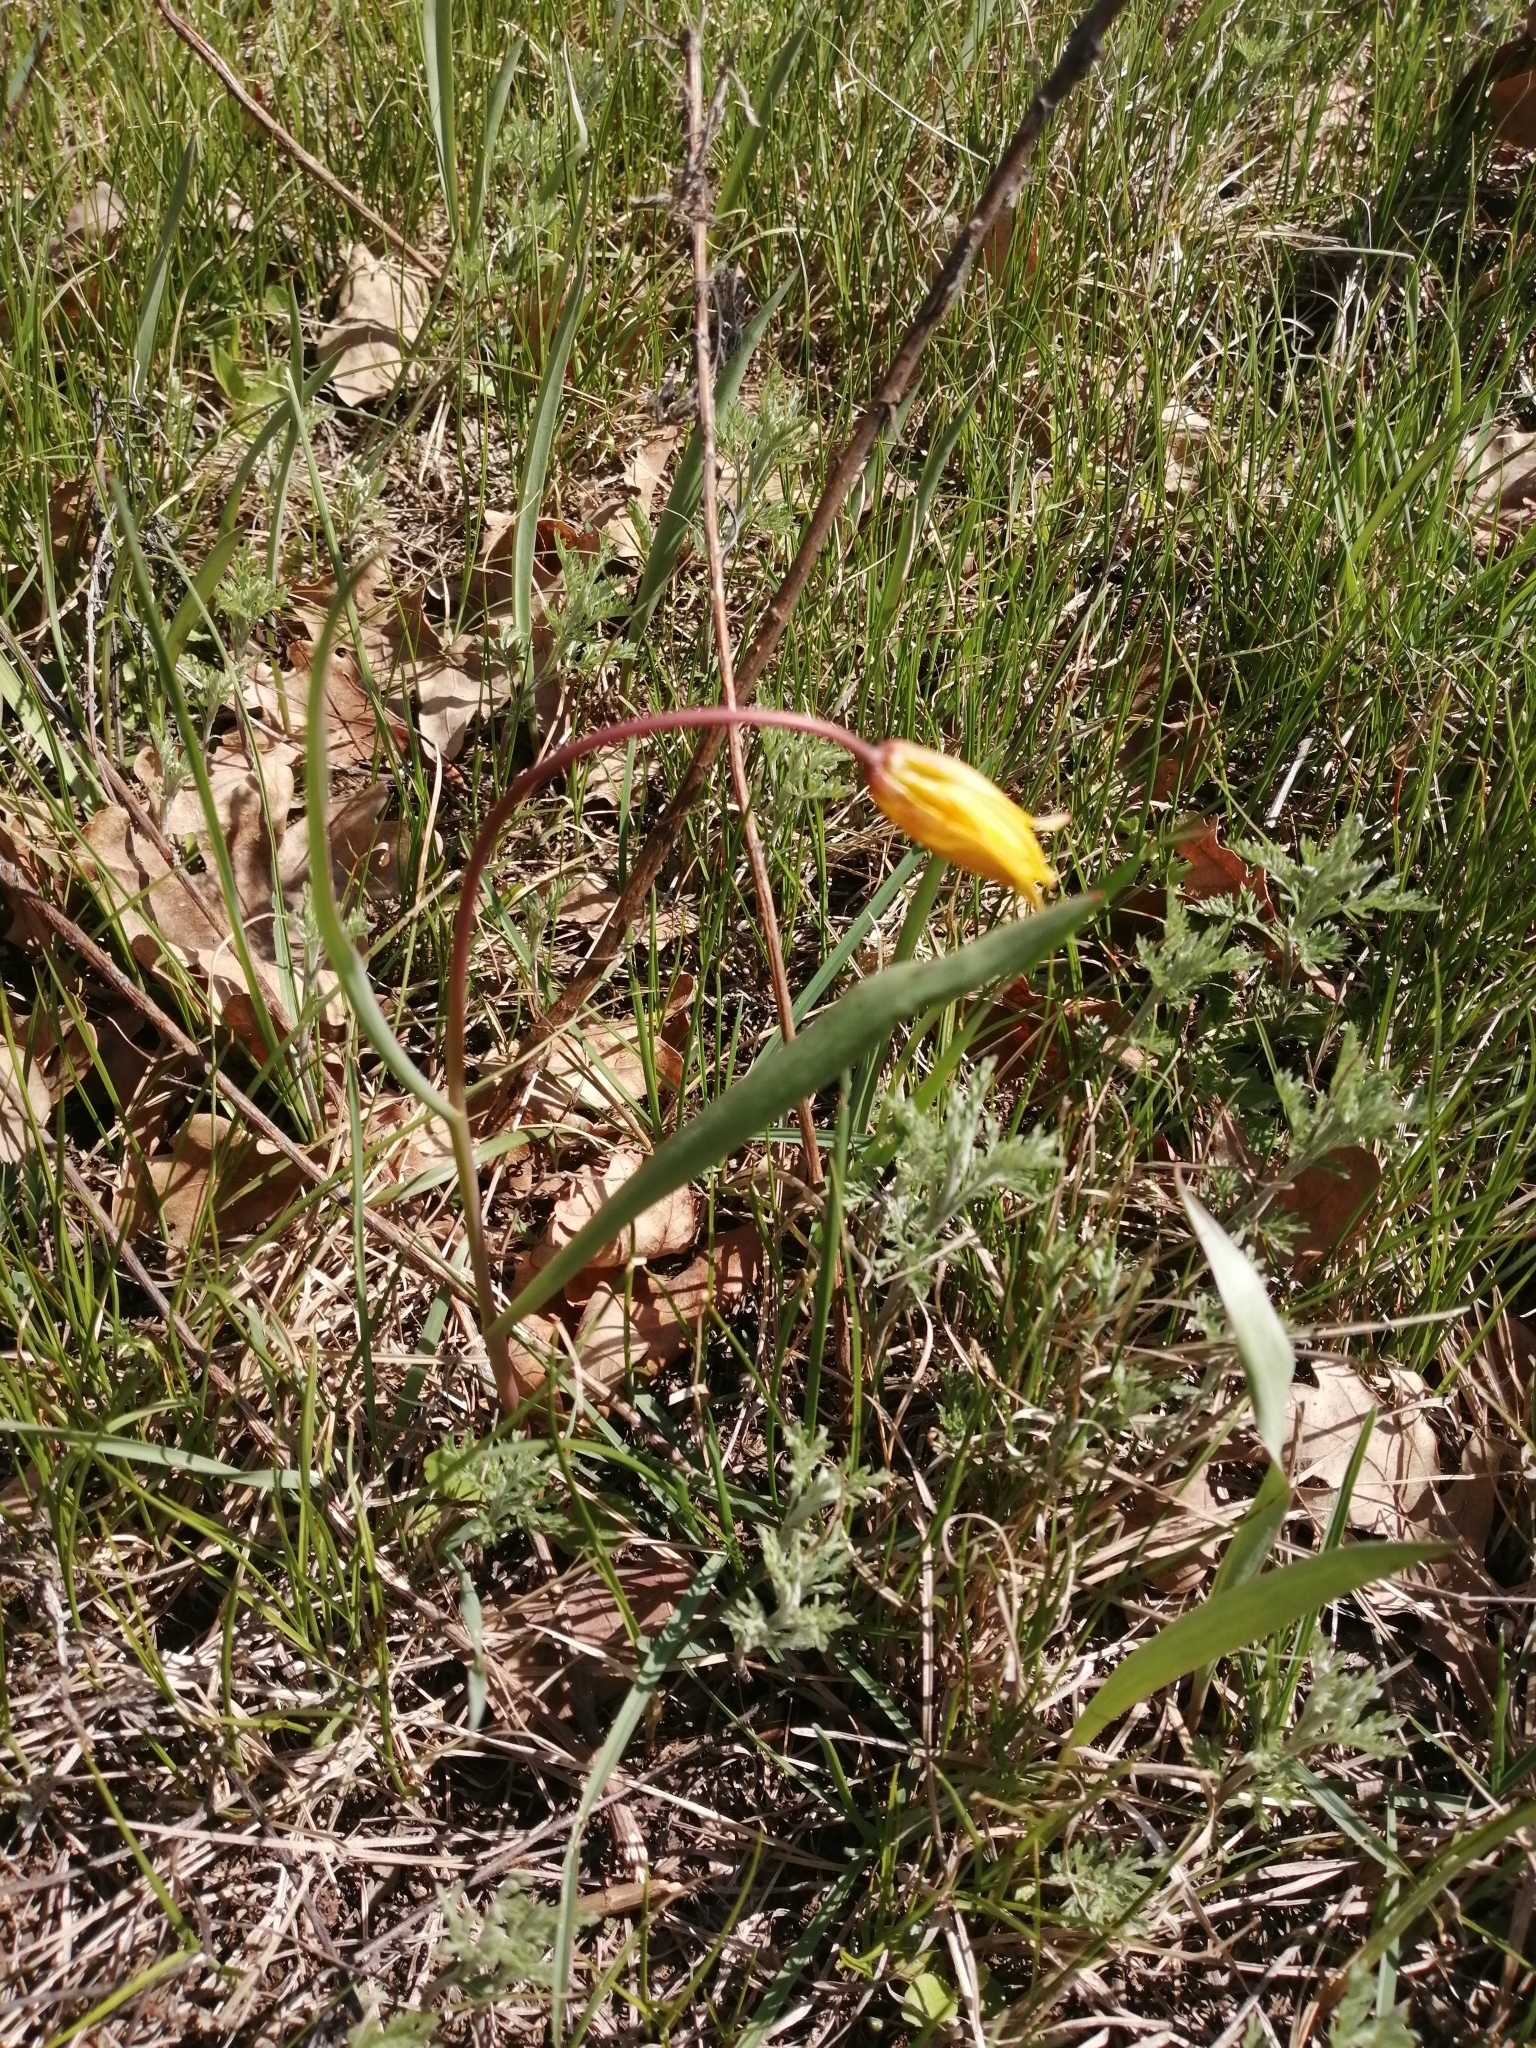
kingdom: Plantae
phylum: Tracheophyta
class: Liliopsida
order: Liliales
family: Liliaceae
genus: Tulipa
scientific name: Tulipa sylvestris
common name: Wild tulip
